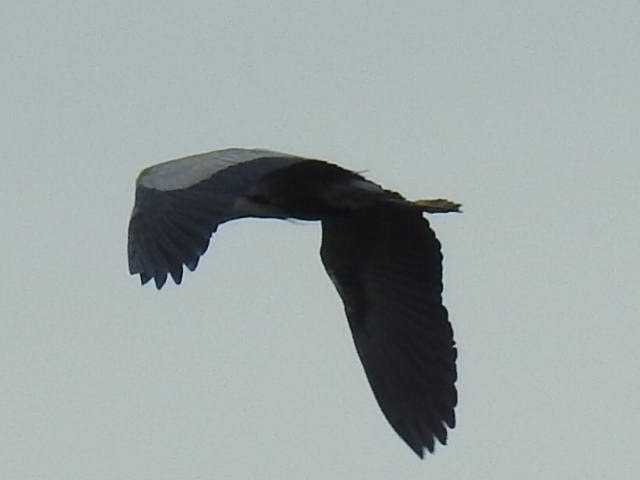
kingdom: Animalia
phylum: Chordata
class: Aves
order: Pelecaniformes
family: Ardeidae
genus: Ardea
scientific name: Ardea herodias
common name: Great blue heron
